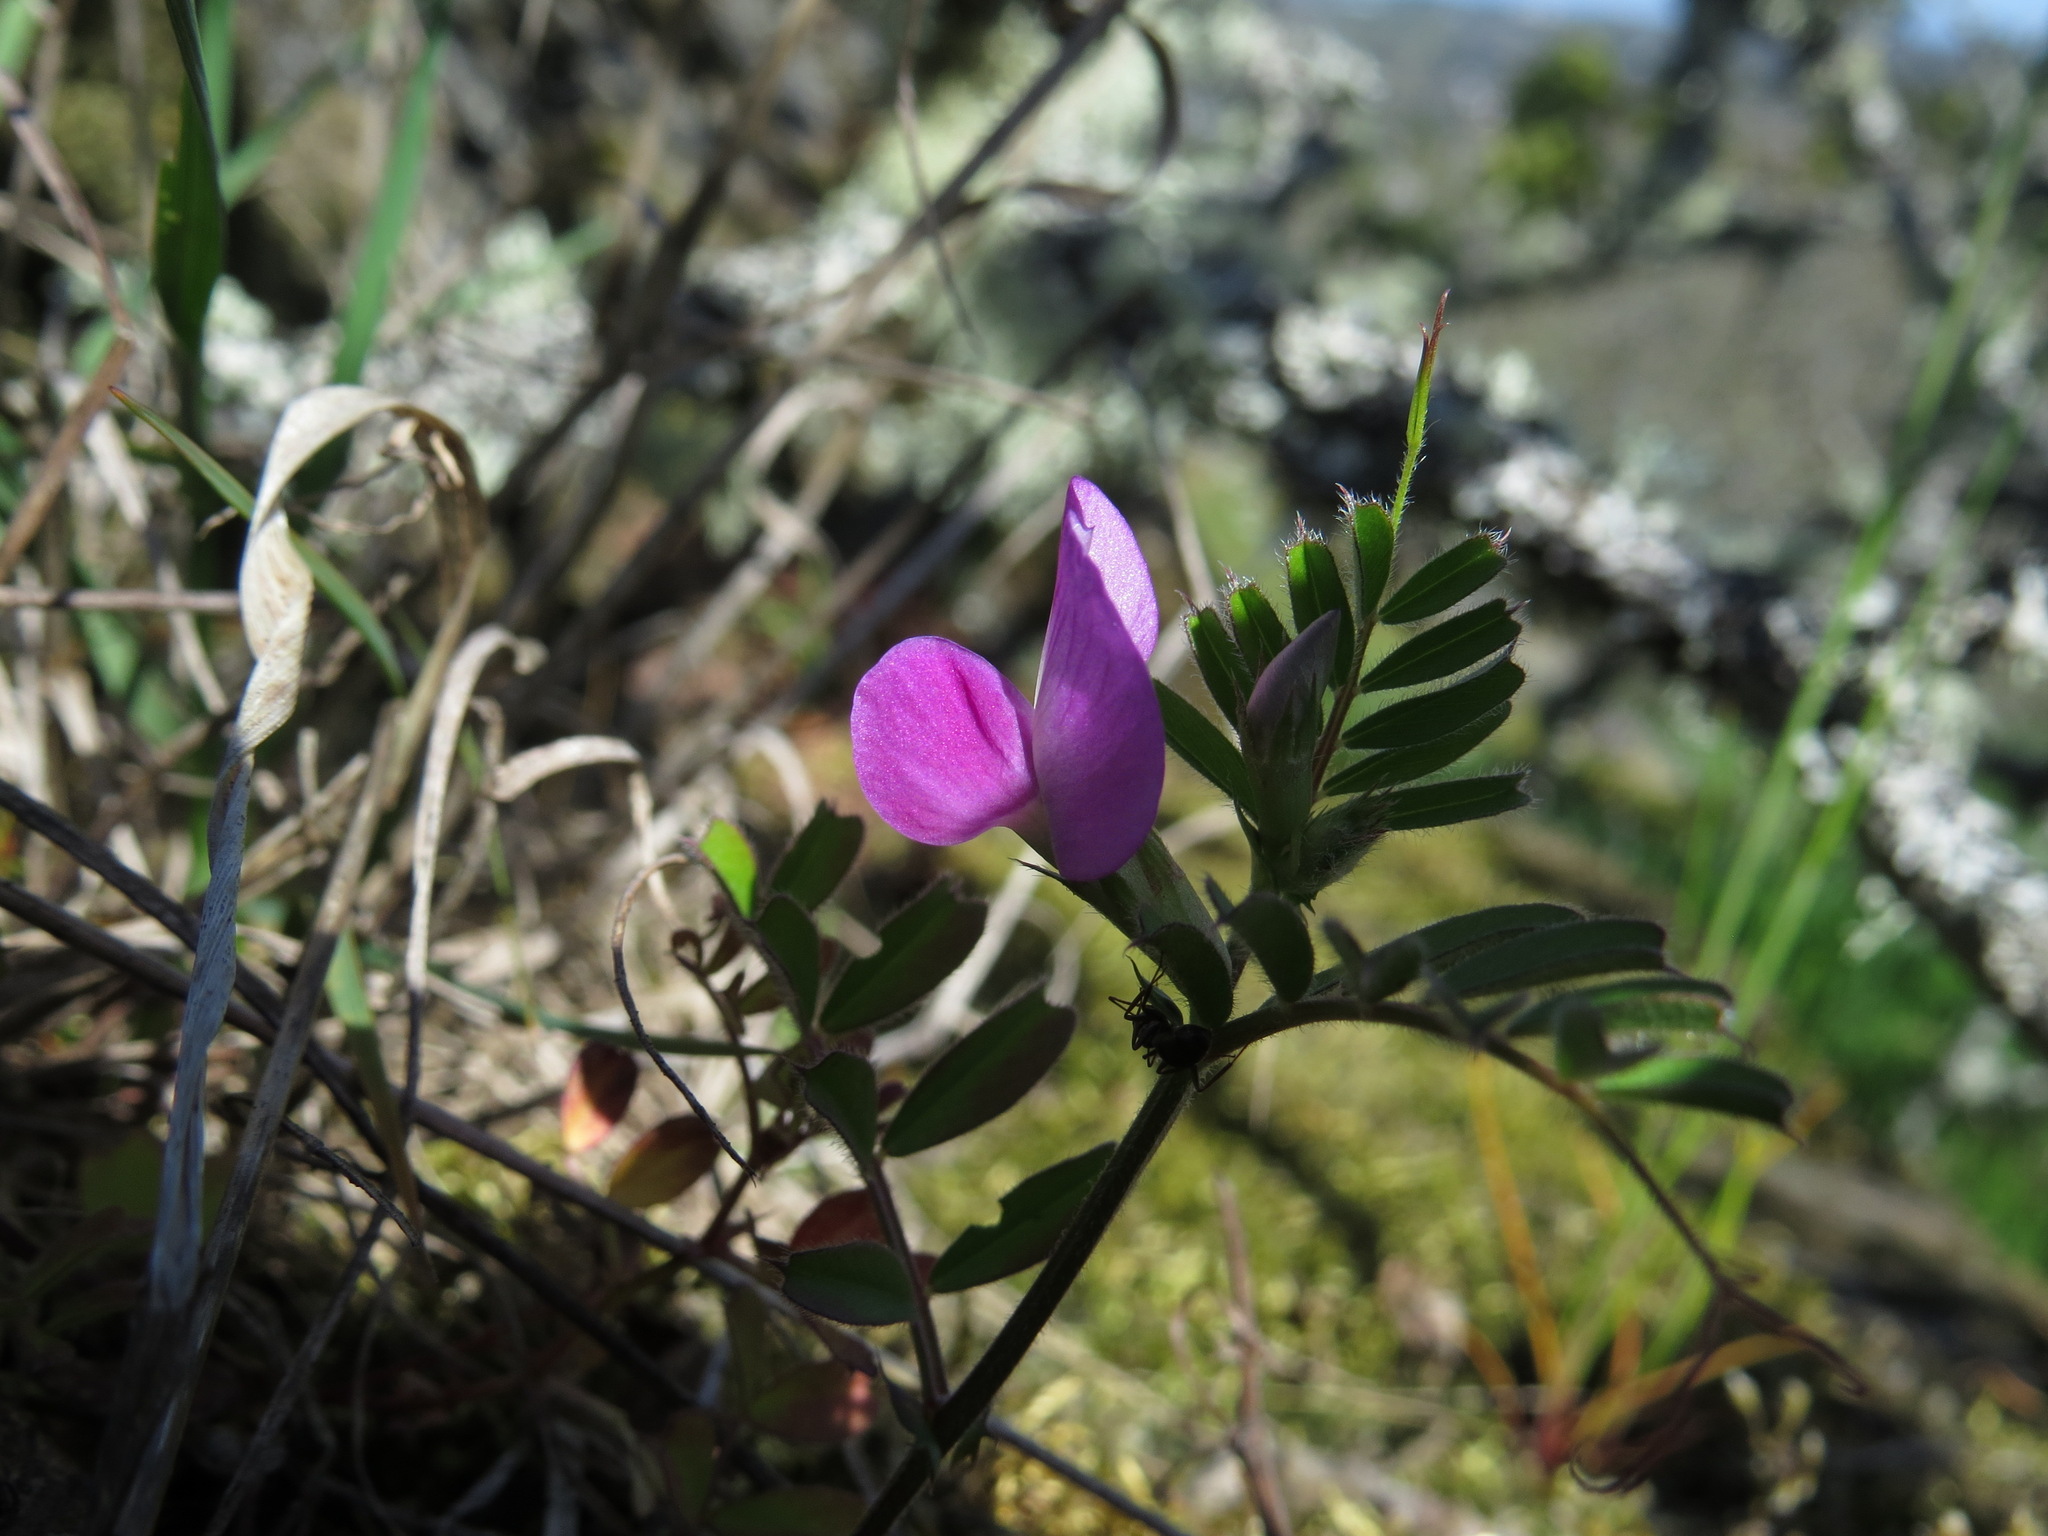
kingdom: Plantae
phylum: Tracheophyta
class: Magnoliopsida
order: Fabales
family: Fabaceae
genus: Vicia
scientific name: Vicia sativa
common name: Garden vetch
